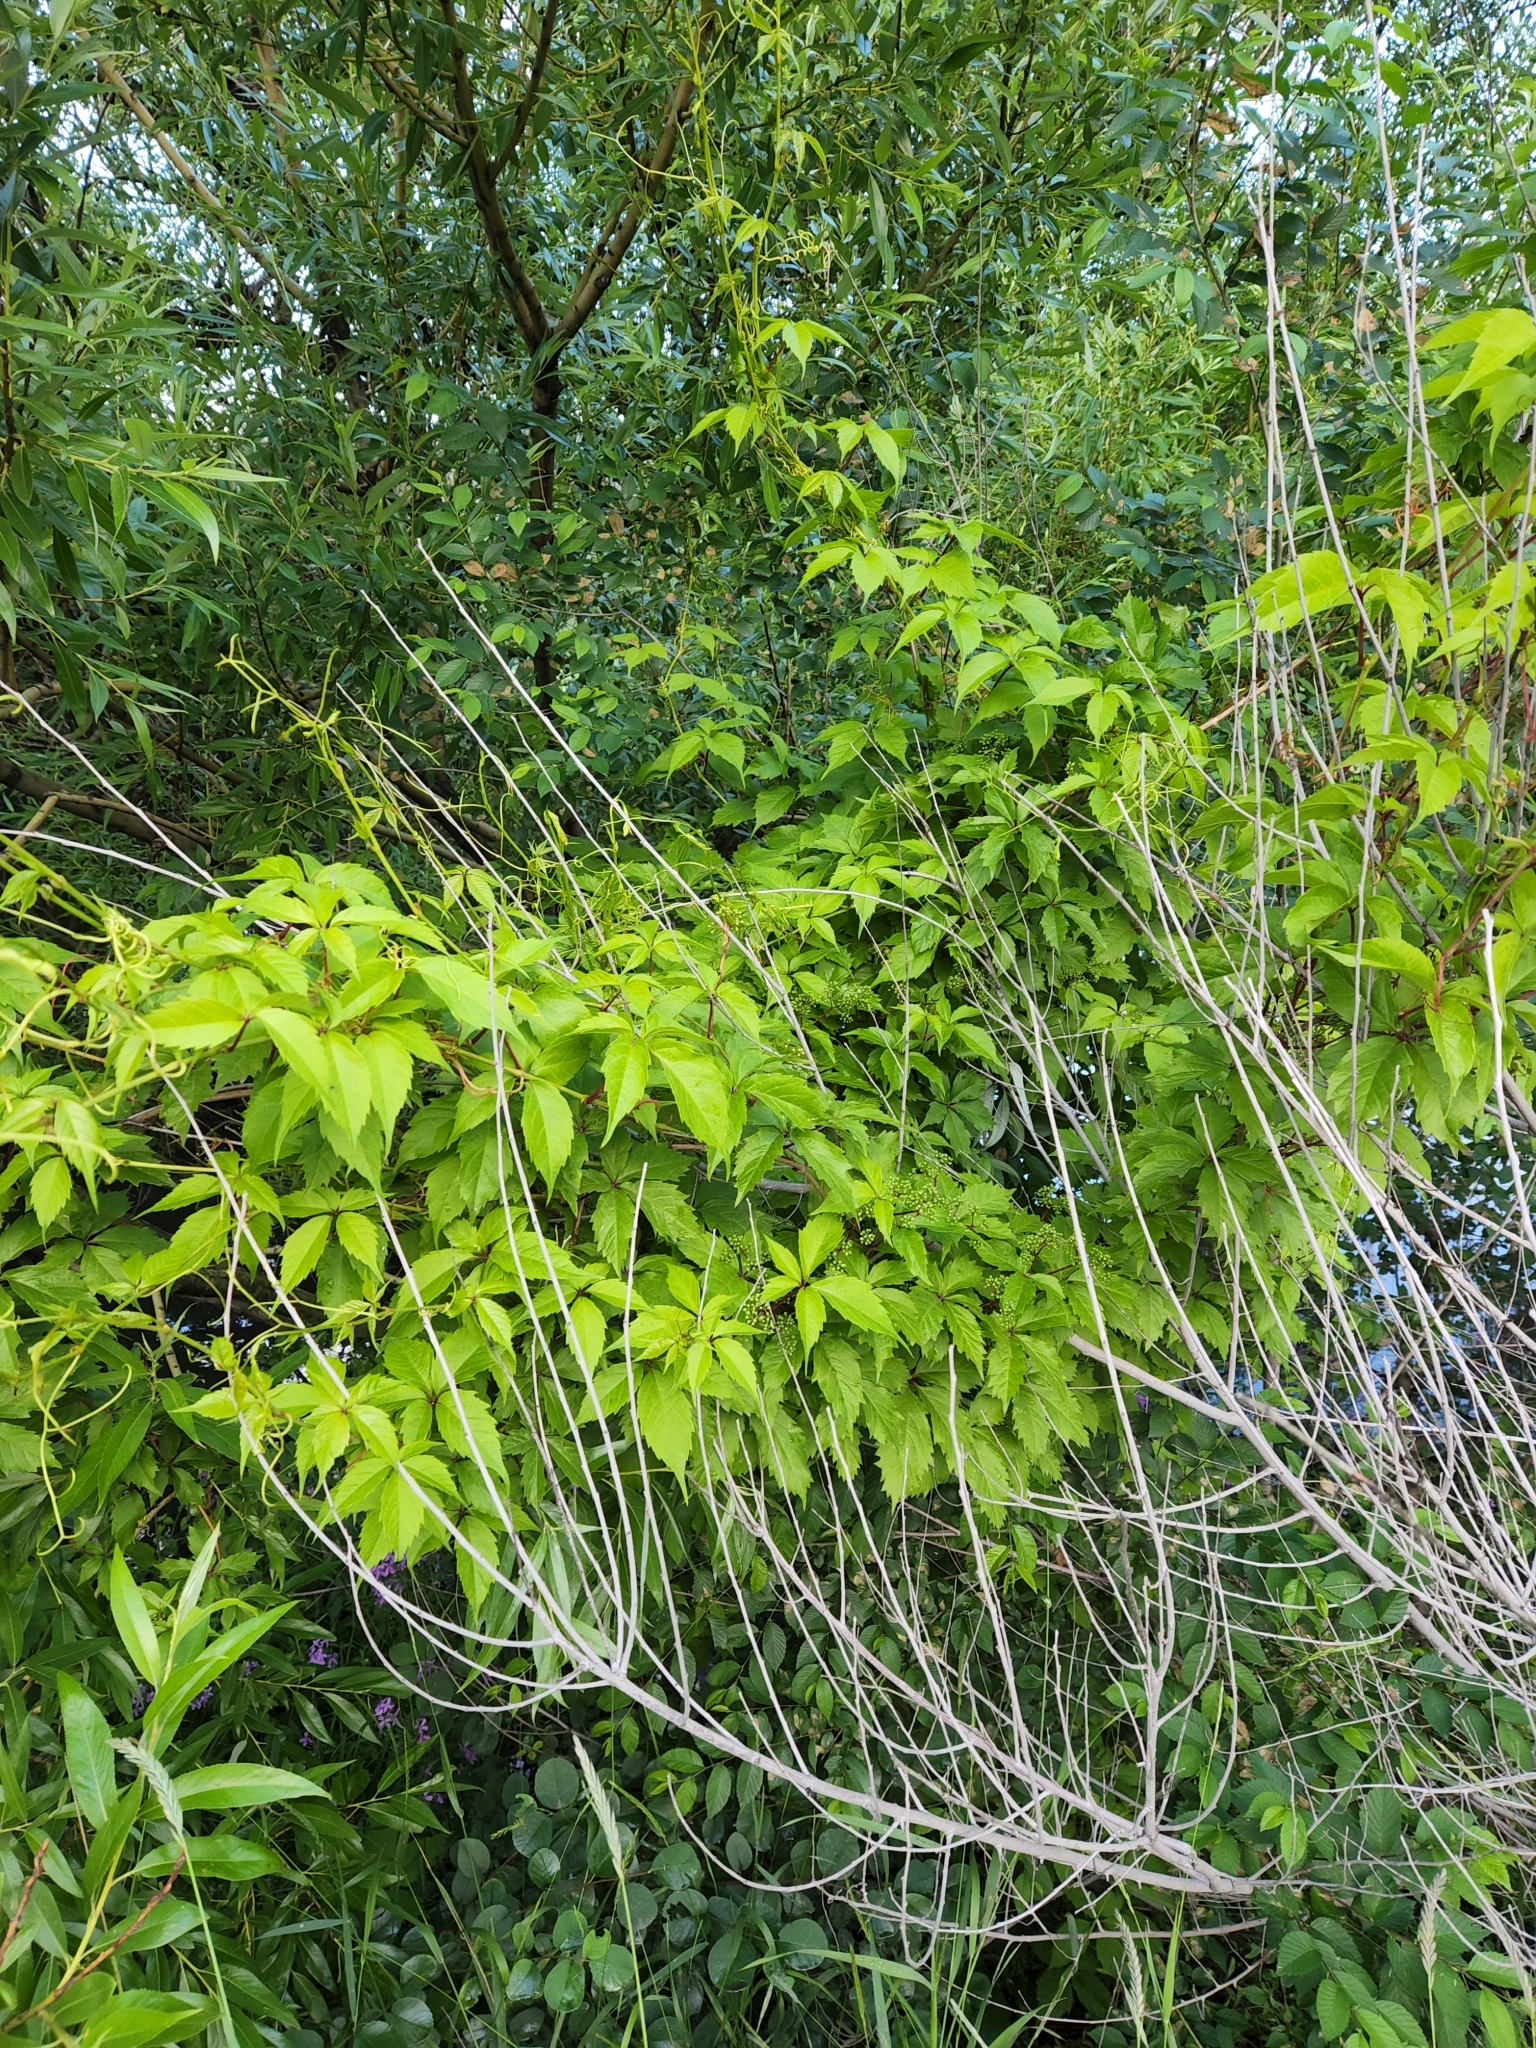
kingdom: Plantae
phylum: Tracheophyta
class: Magnoliopsida
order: Vitales
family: Vitaceae
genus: Parthenocissus
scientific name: Parthenocissus quinquefolia
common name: Virginia-creeper
